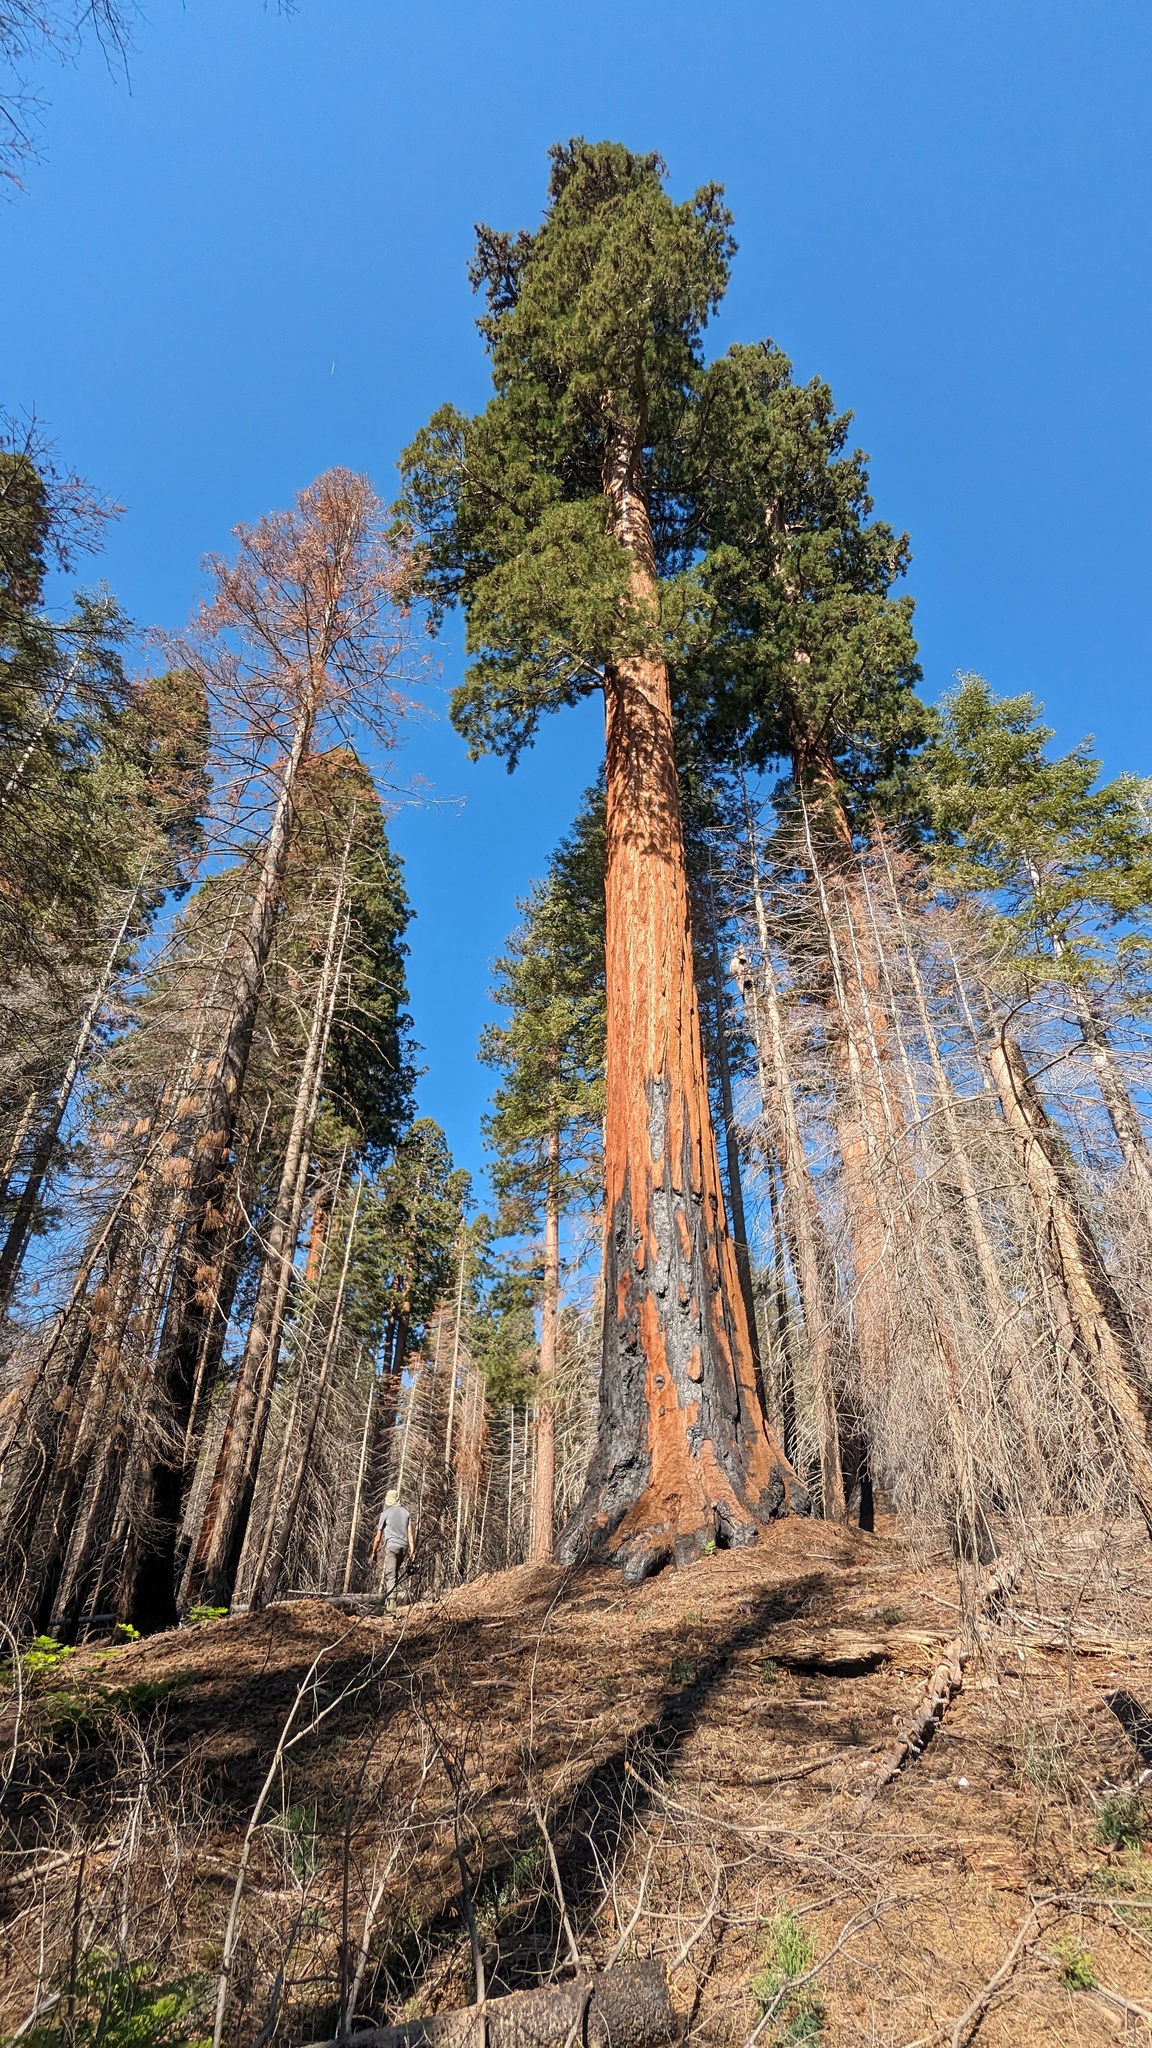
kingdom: Plantae
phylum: Tracheophyta
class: Pinopsida
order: Pinales
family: Cupressaceae
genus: Sequoiadendron
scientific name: Sequoiadendron giganteum
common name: Wellingtonia
